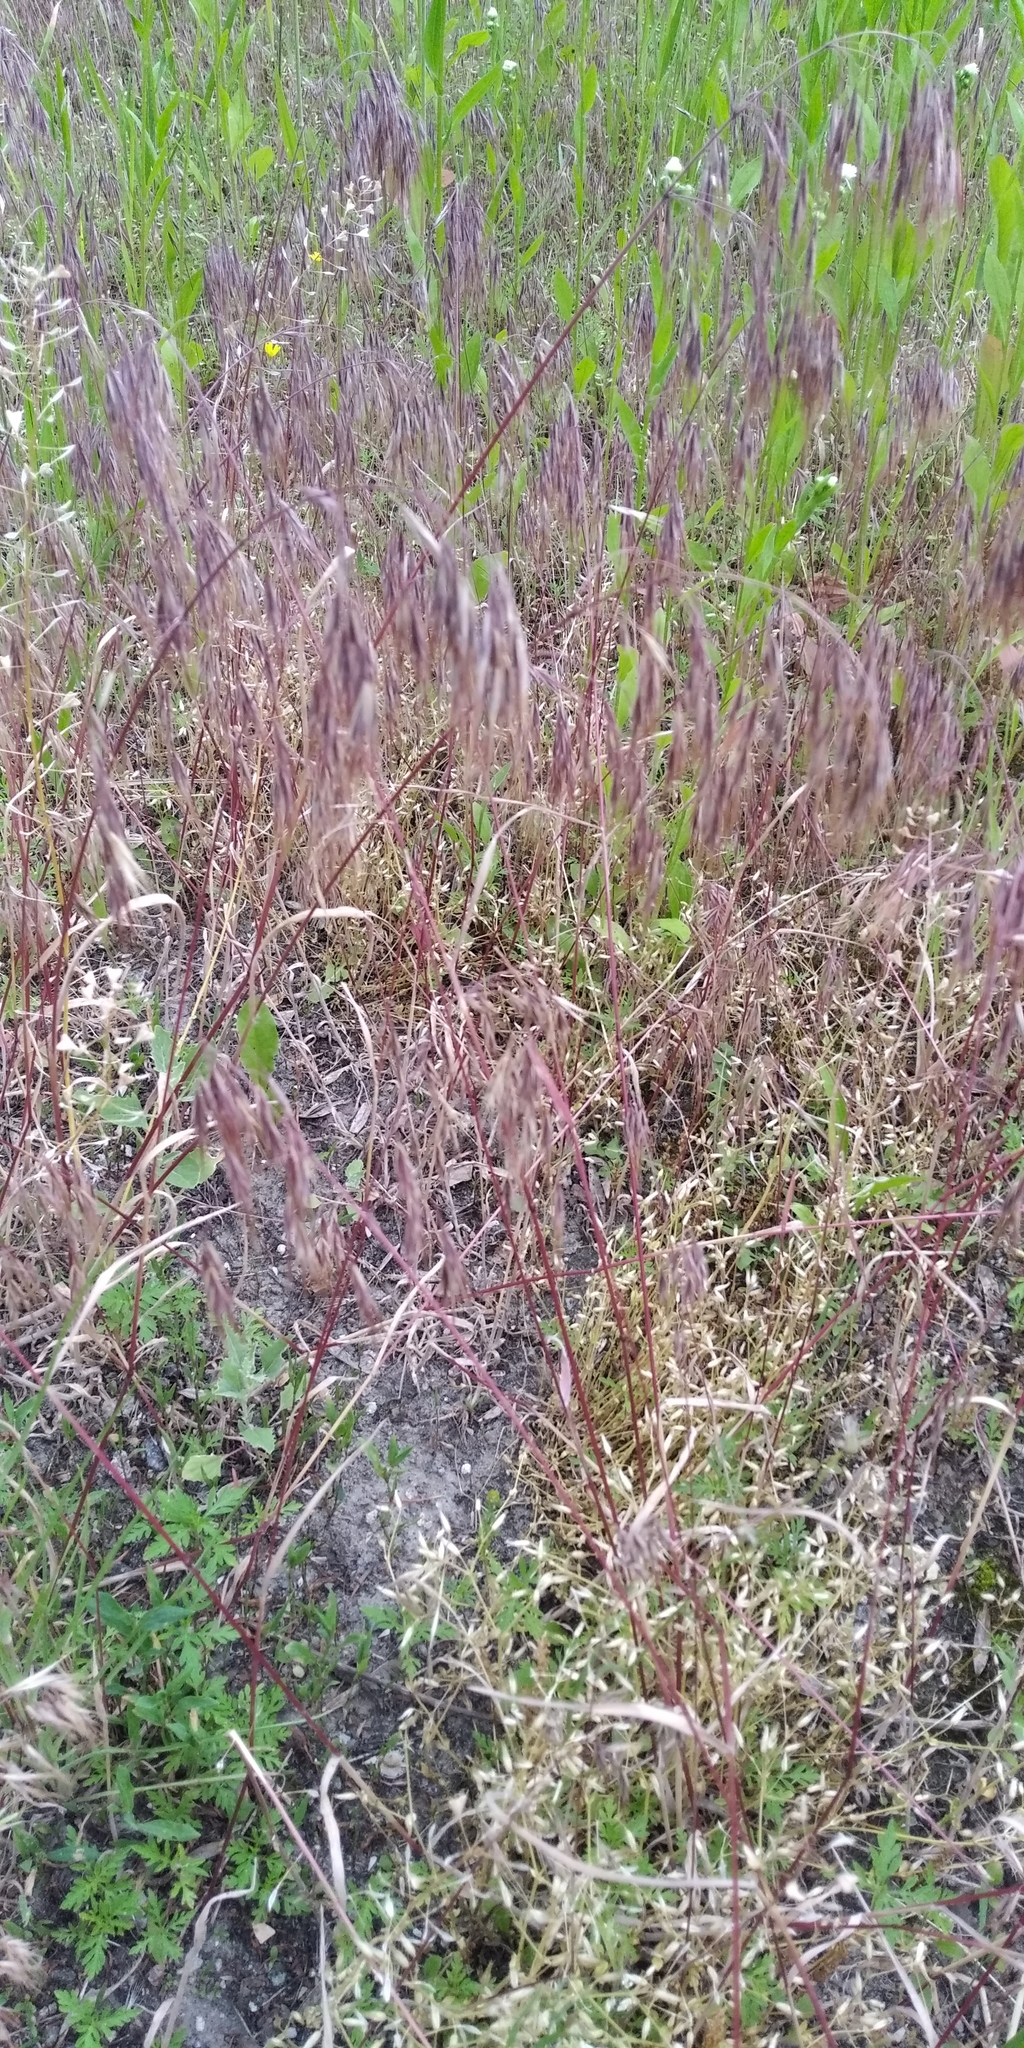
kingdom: Plantae
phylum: Tracheophyta
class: Liliopsida
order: Poales
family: Poaceae
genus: Bromus
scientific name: Bromus tectorum
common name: Cheatgrass
